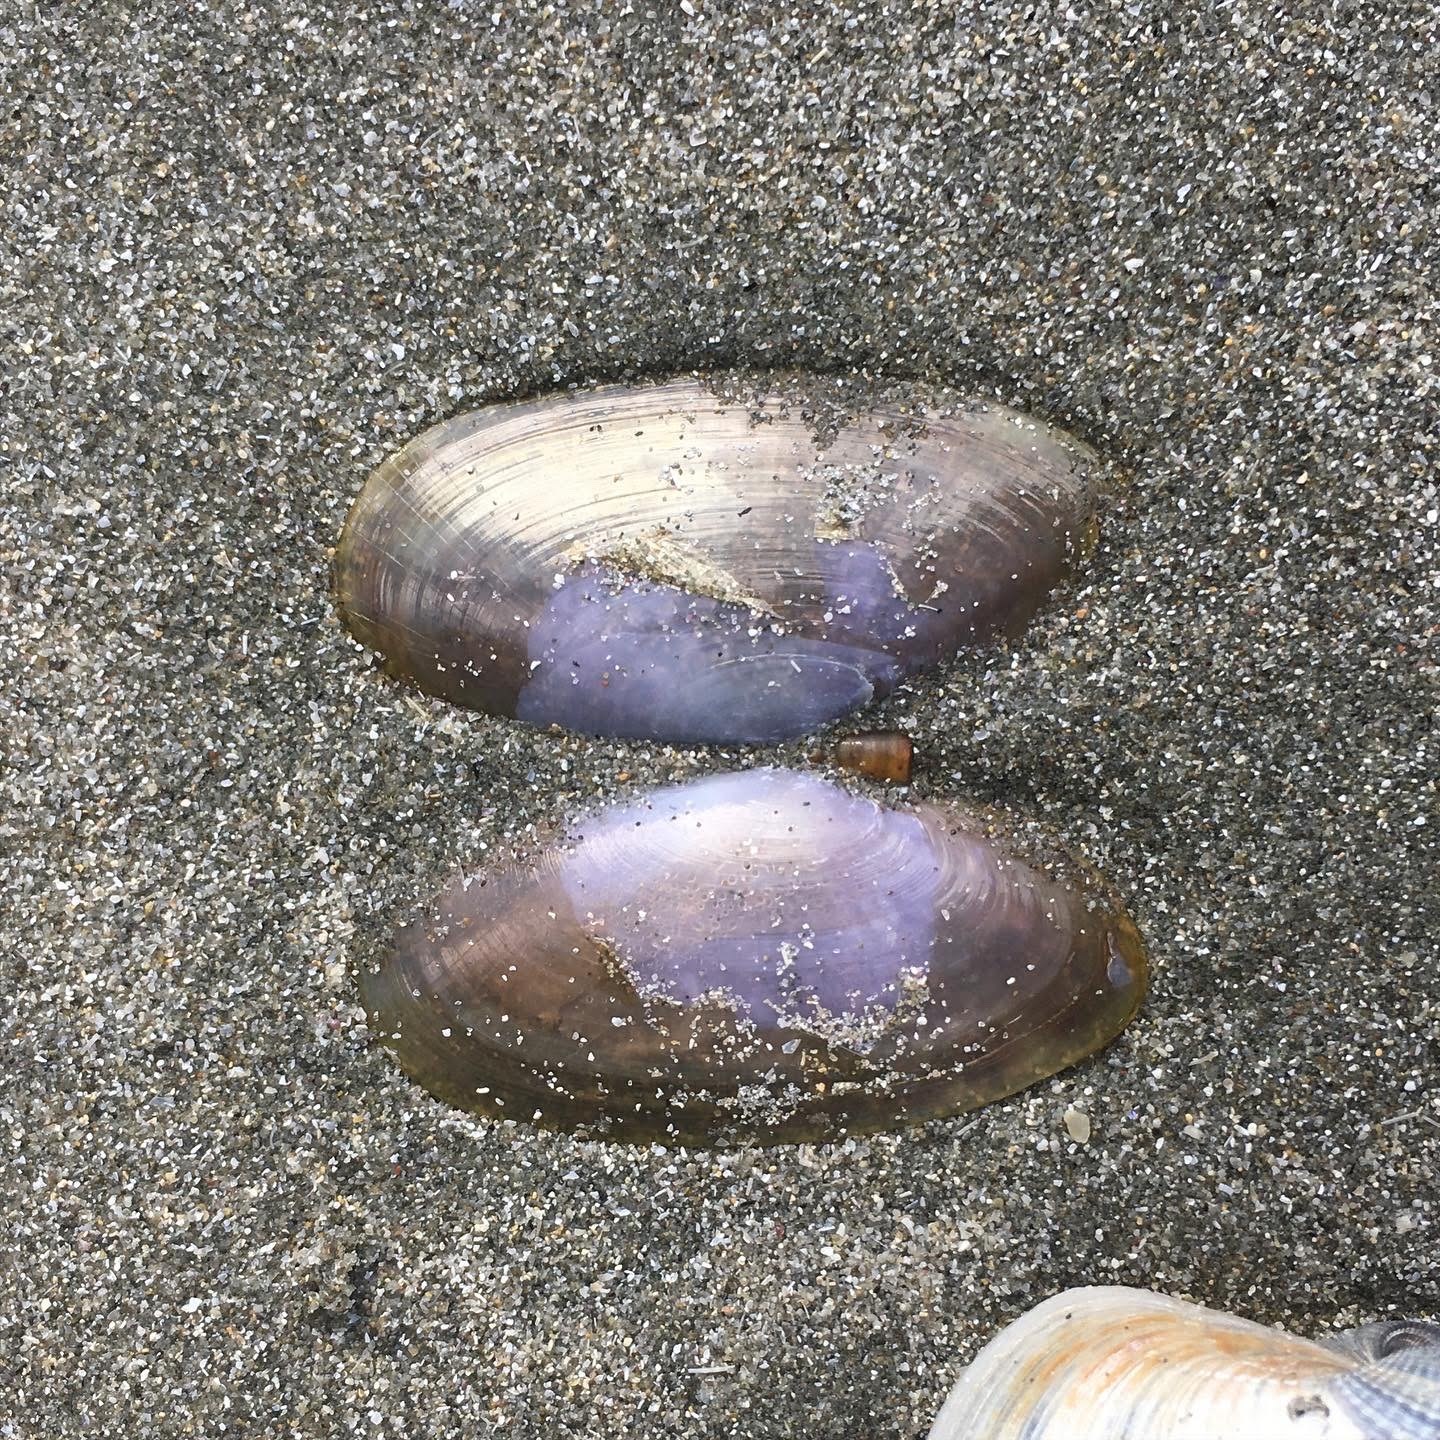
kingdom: Animalia
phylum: Mollusca
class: Bivalvia
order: Cardiida
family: Psammobiidae
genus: Hiatula
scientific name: Hiatula nitida
